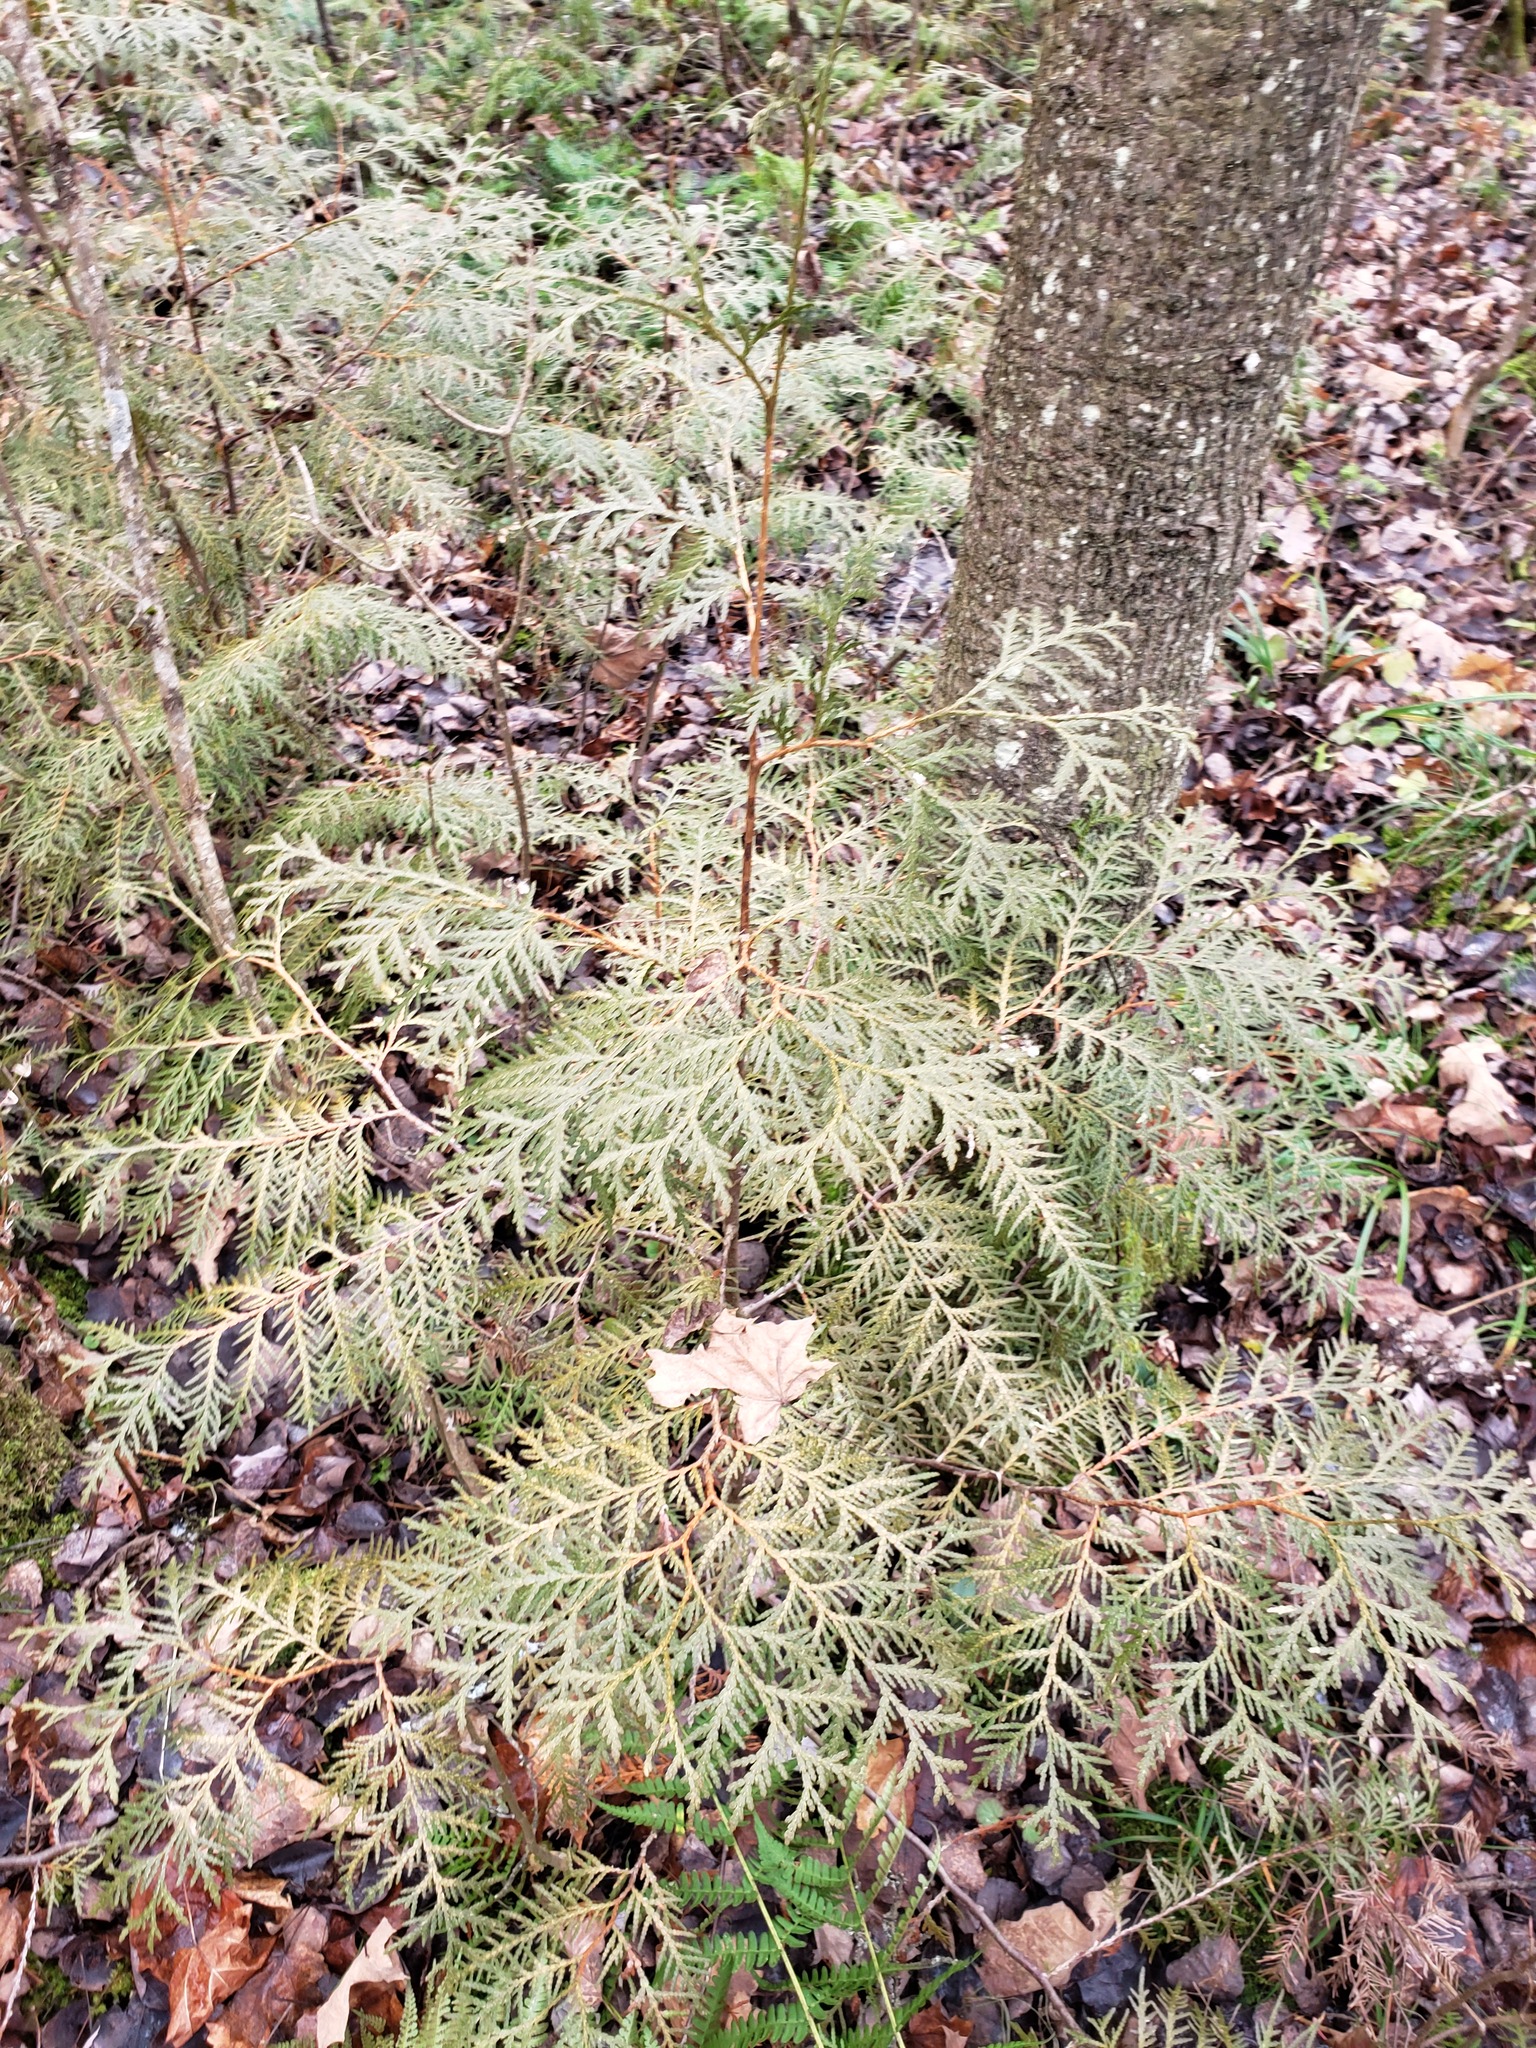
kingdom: Plantae
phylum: Tracheophyta
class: Pinopsida
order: Pinales
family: Cupressaceae
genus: Thuja
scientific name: Thuja occidentalis
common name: Northern white-cedar
